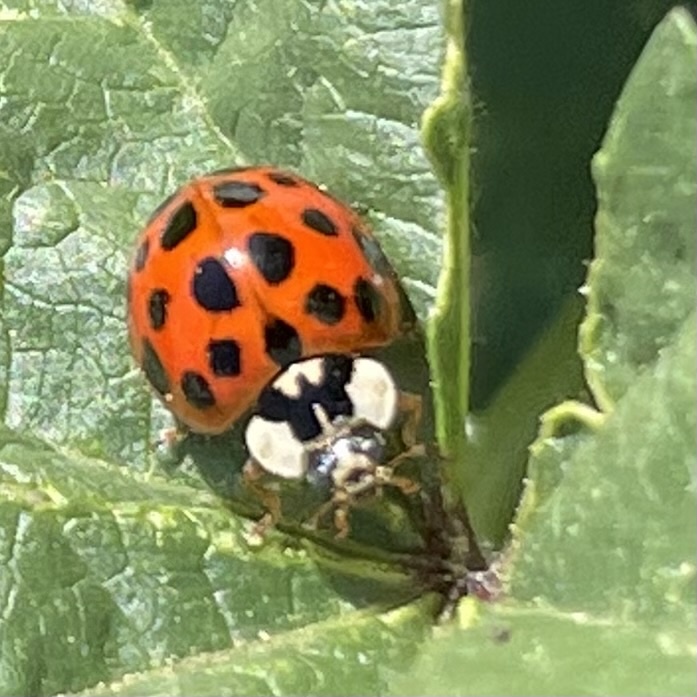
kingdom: Animalia
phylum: Arthropoda
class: Insecta
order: Coleoptera
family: Coccinellidae
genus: Harmonia
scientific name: Harmonia axyridis
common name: Harlequin ladybird
